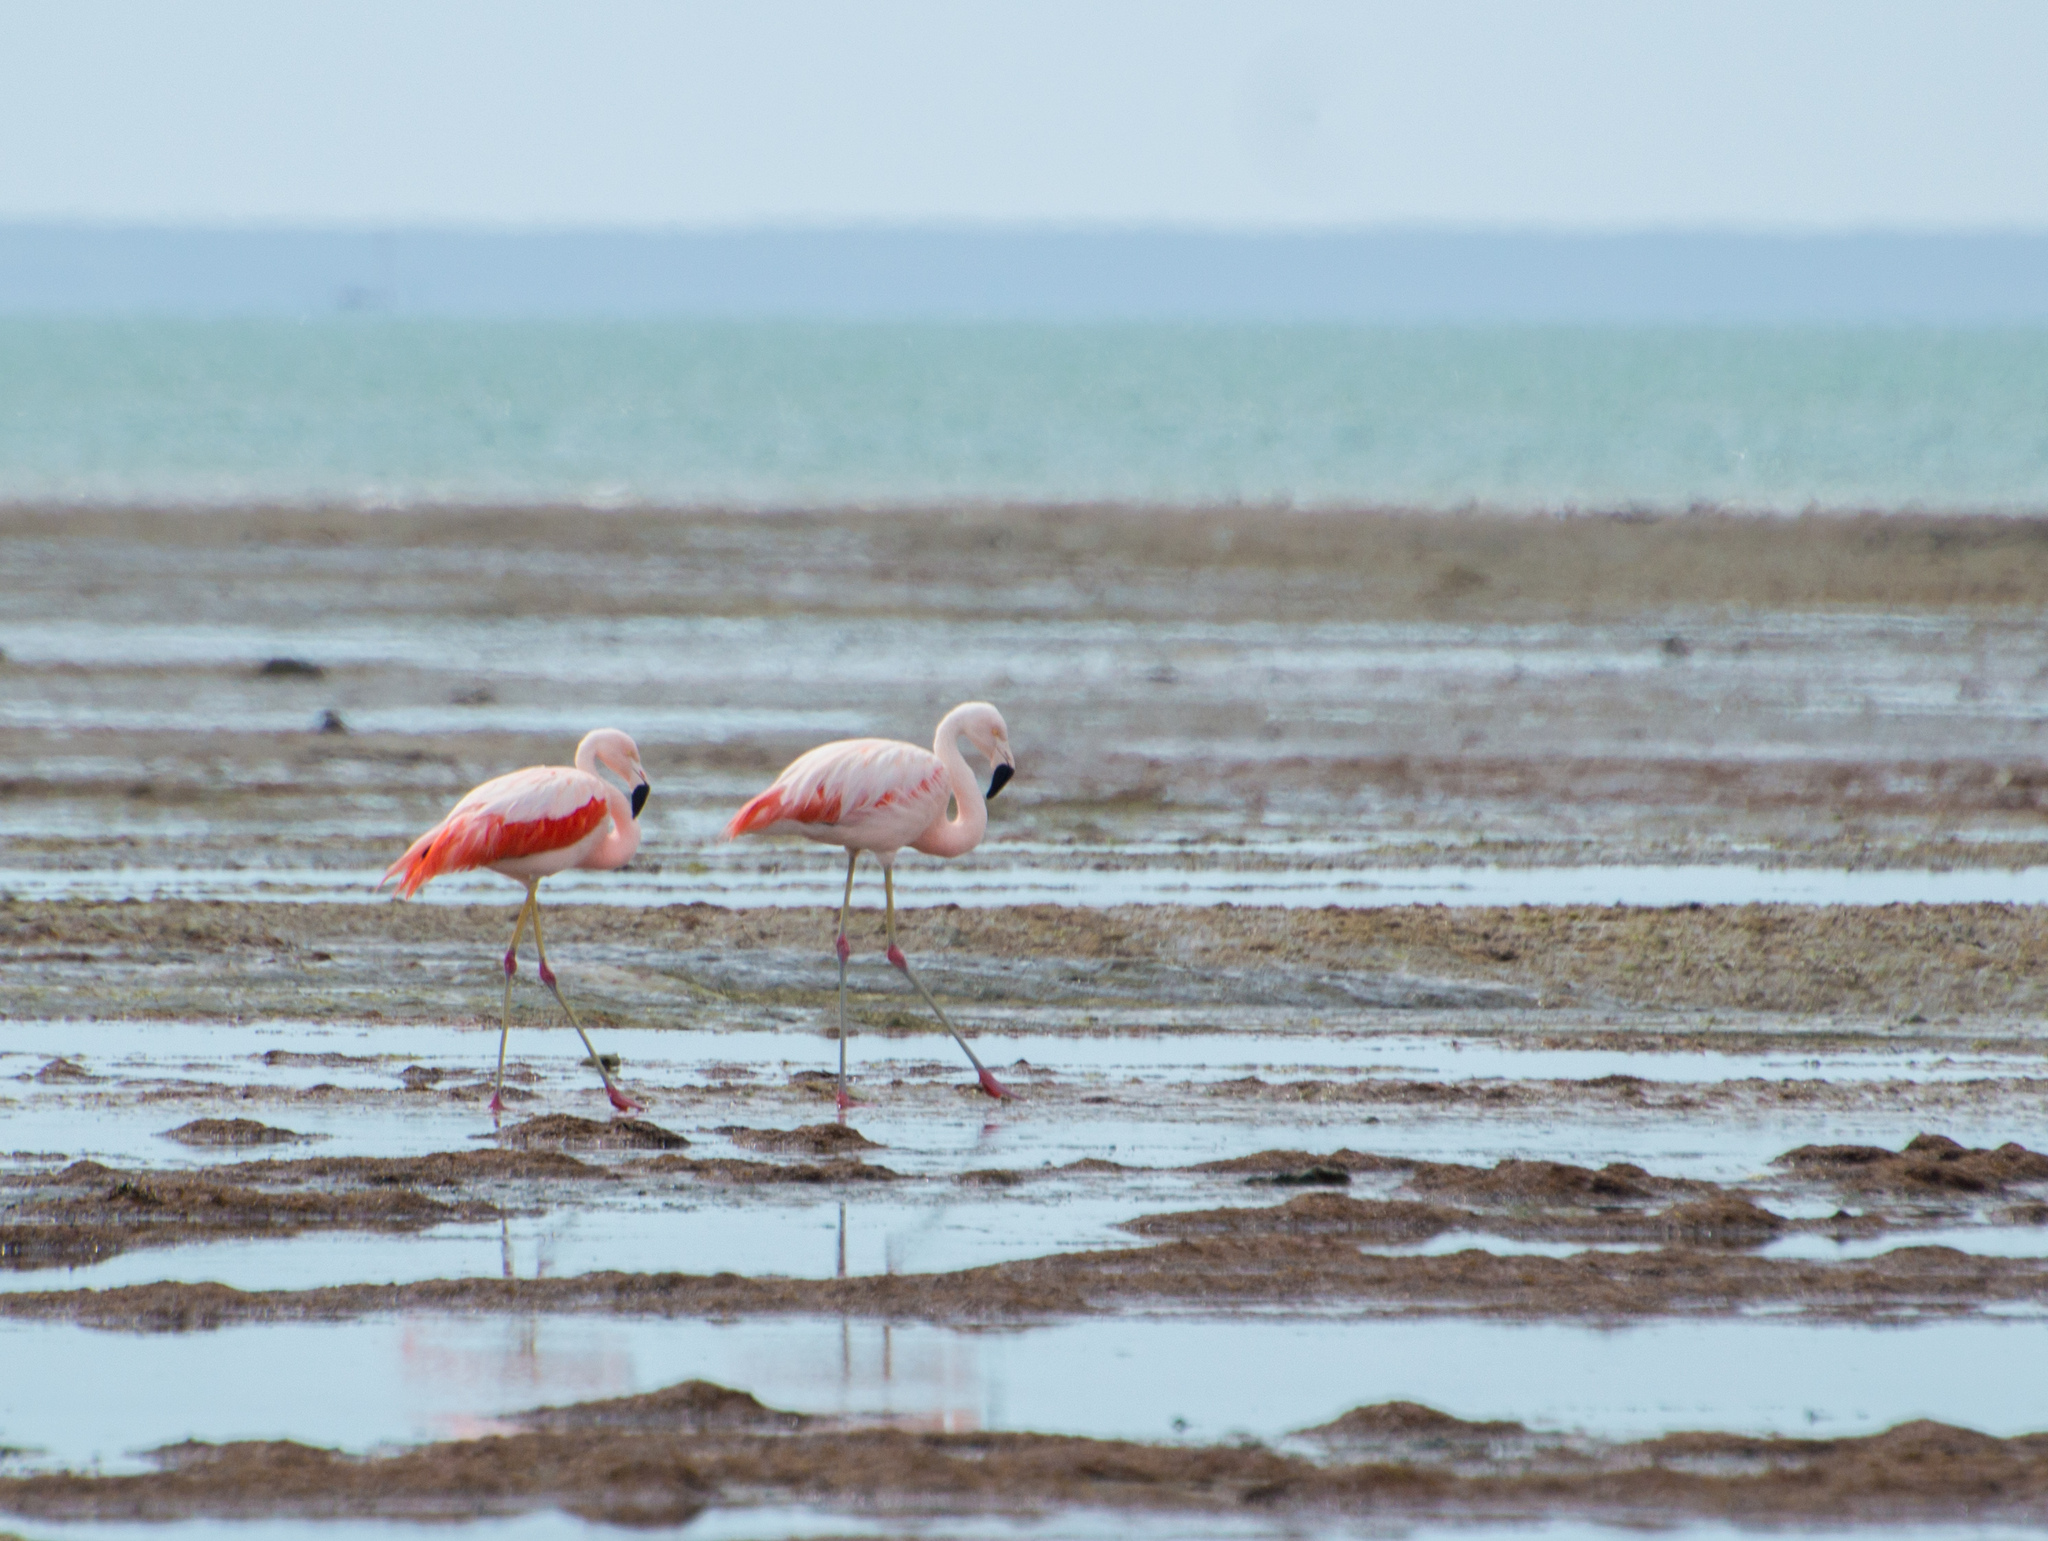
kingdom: Animalia
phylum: Chordata
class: Aves
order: Phoenicopteriformes
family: Phoenicopteridae
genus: Phoenicopterus
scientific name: Phoenicopterus chilensis
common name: Chilean flamingo
